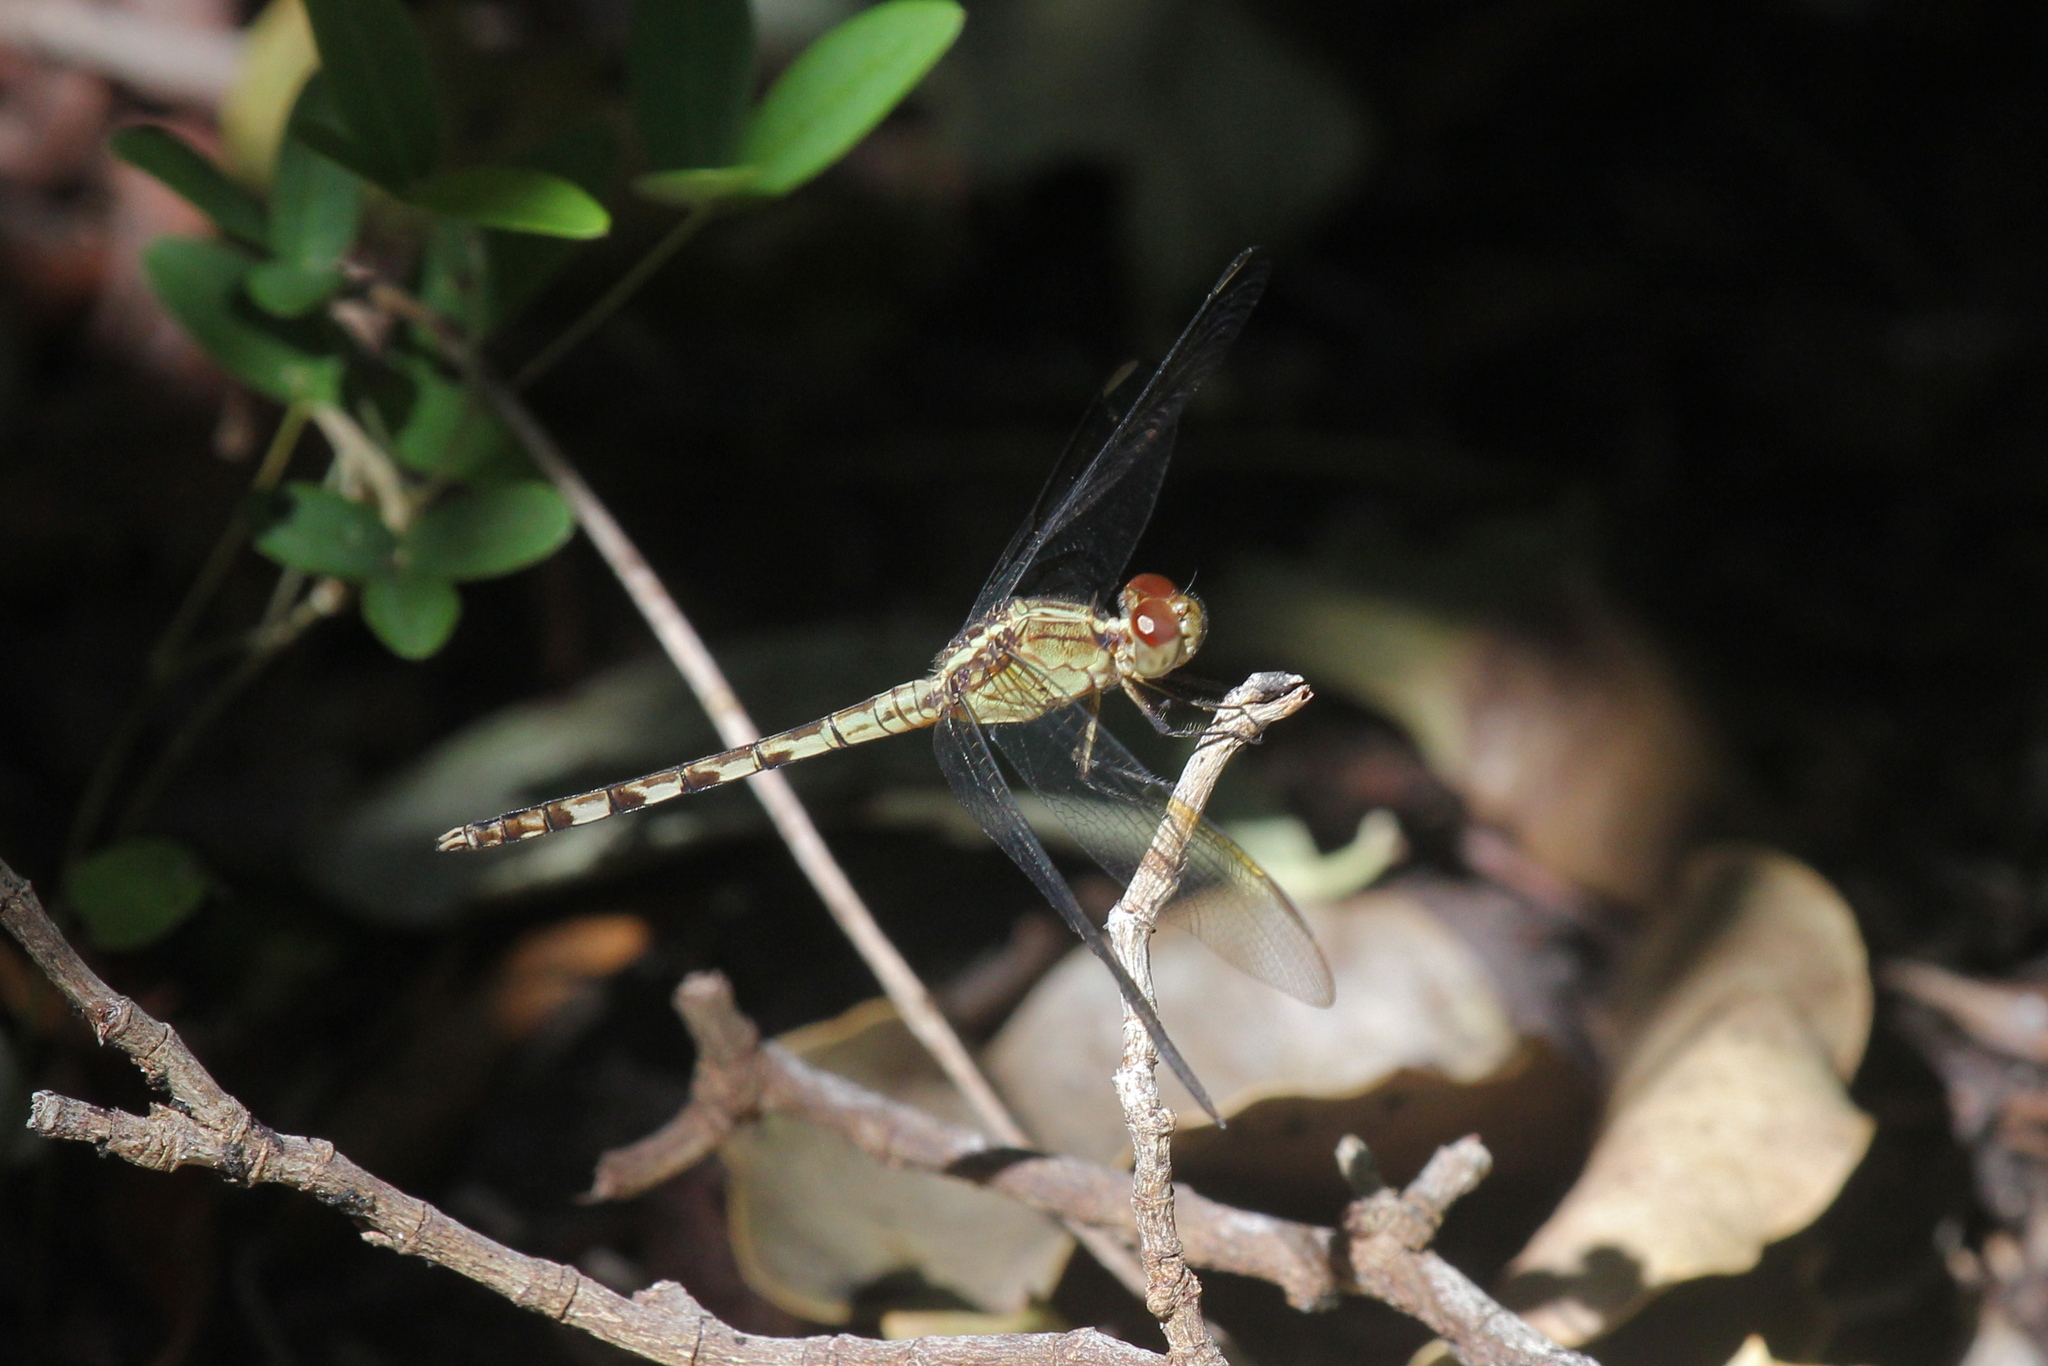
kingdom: Animalia
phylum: Arthropoda
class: Insecta
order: Odonata
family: Libellulidae
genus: Erythrodiplax
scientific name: Erythrodiplax umbrata
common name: Band-winged dragonlet
